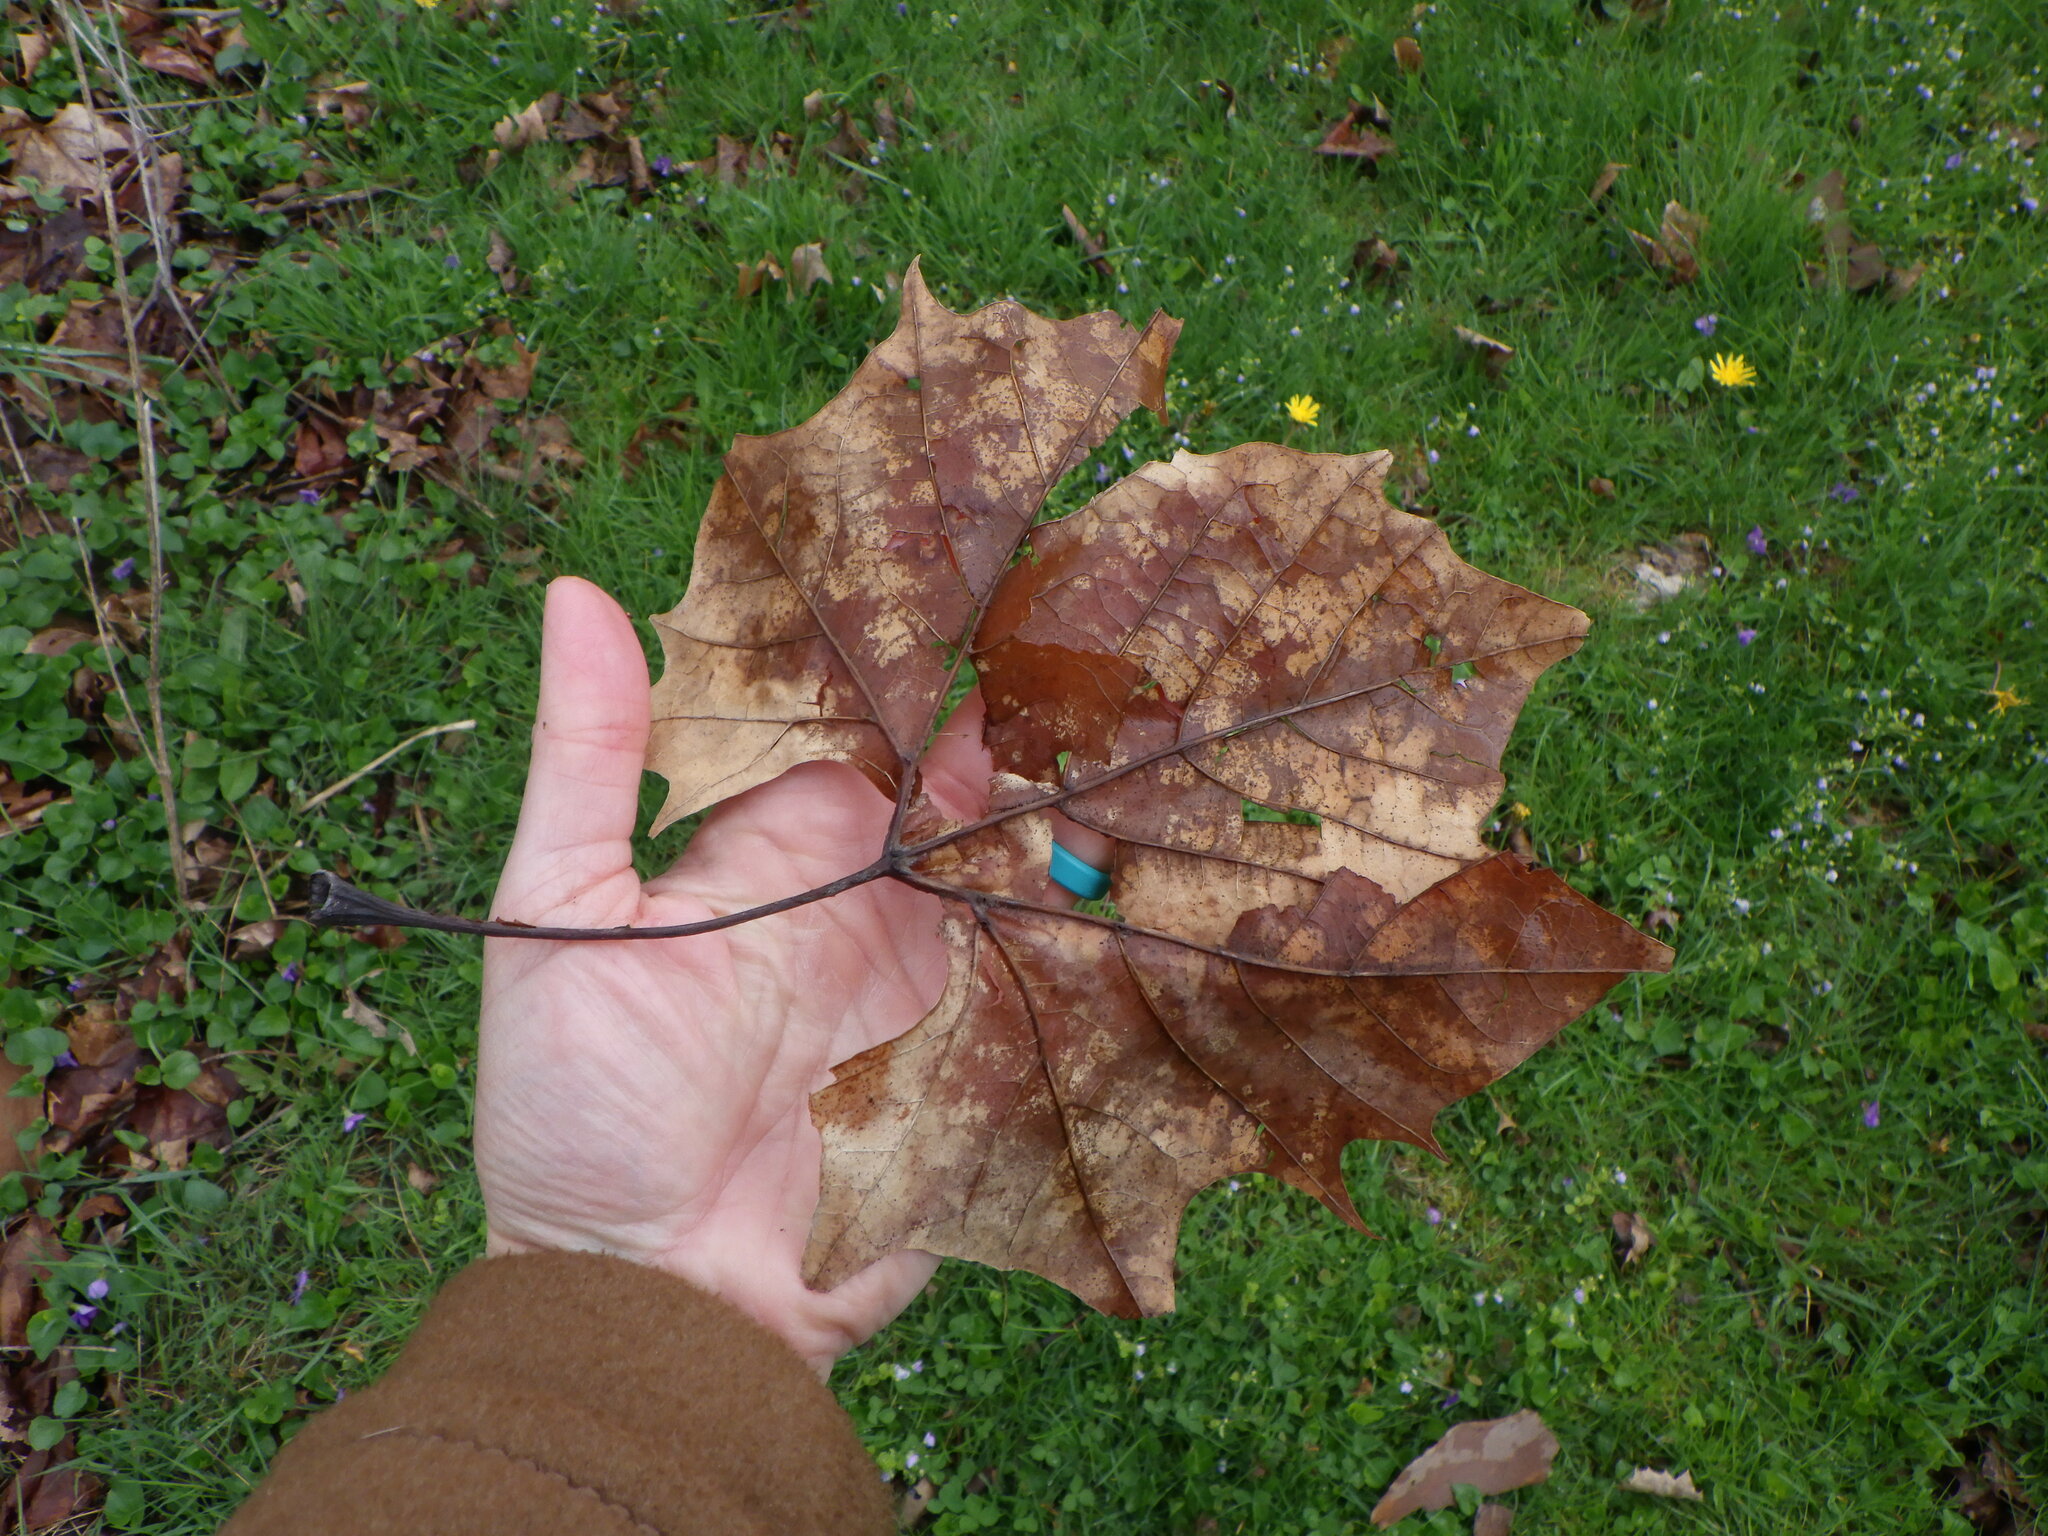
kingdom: Plantae
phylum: Tracheophyta
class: Magnoliopsida
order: Proteales
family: Platanaceae
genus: Platanus
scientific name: Platanus occidentalis
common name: American sycamore
